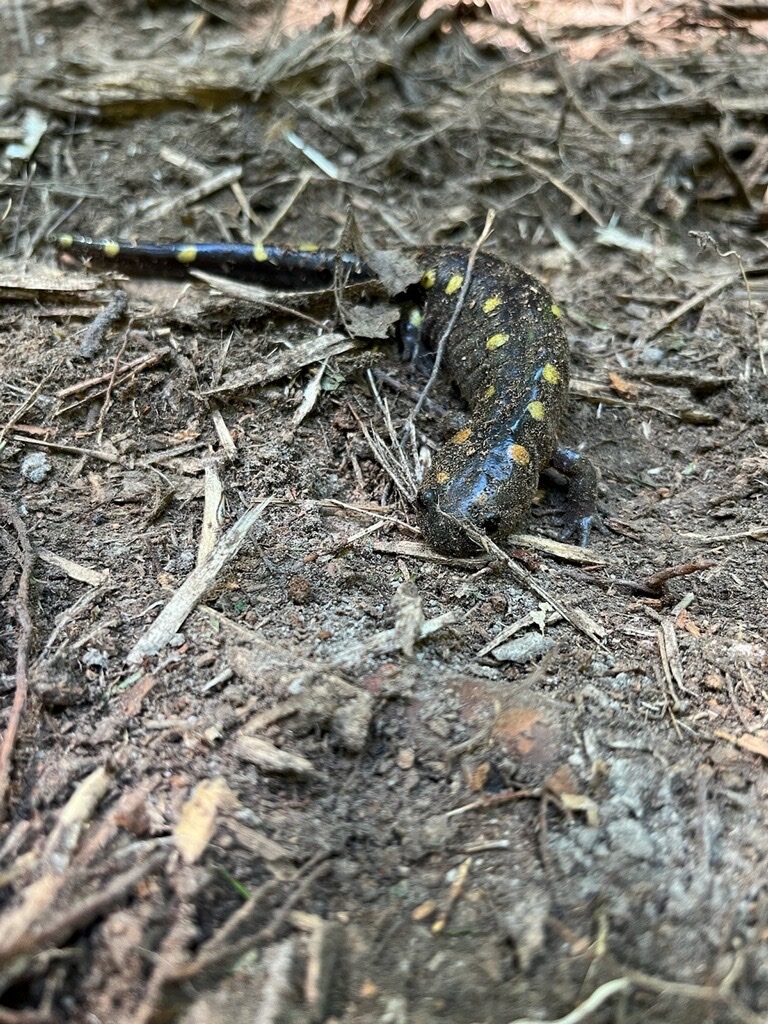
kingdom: Animalia
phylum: Chordata
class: Amphibia
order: Caudata
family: Ambystomatidae
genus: Ambystoma
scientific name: Ambystoma maculatum
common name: Spotted salamander
